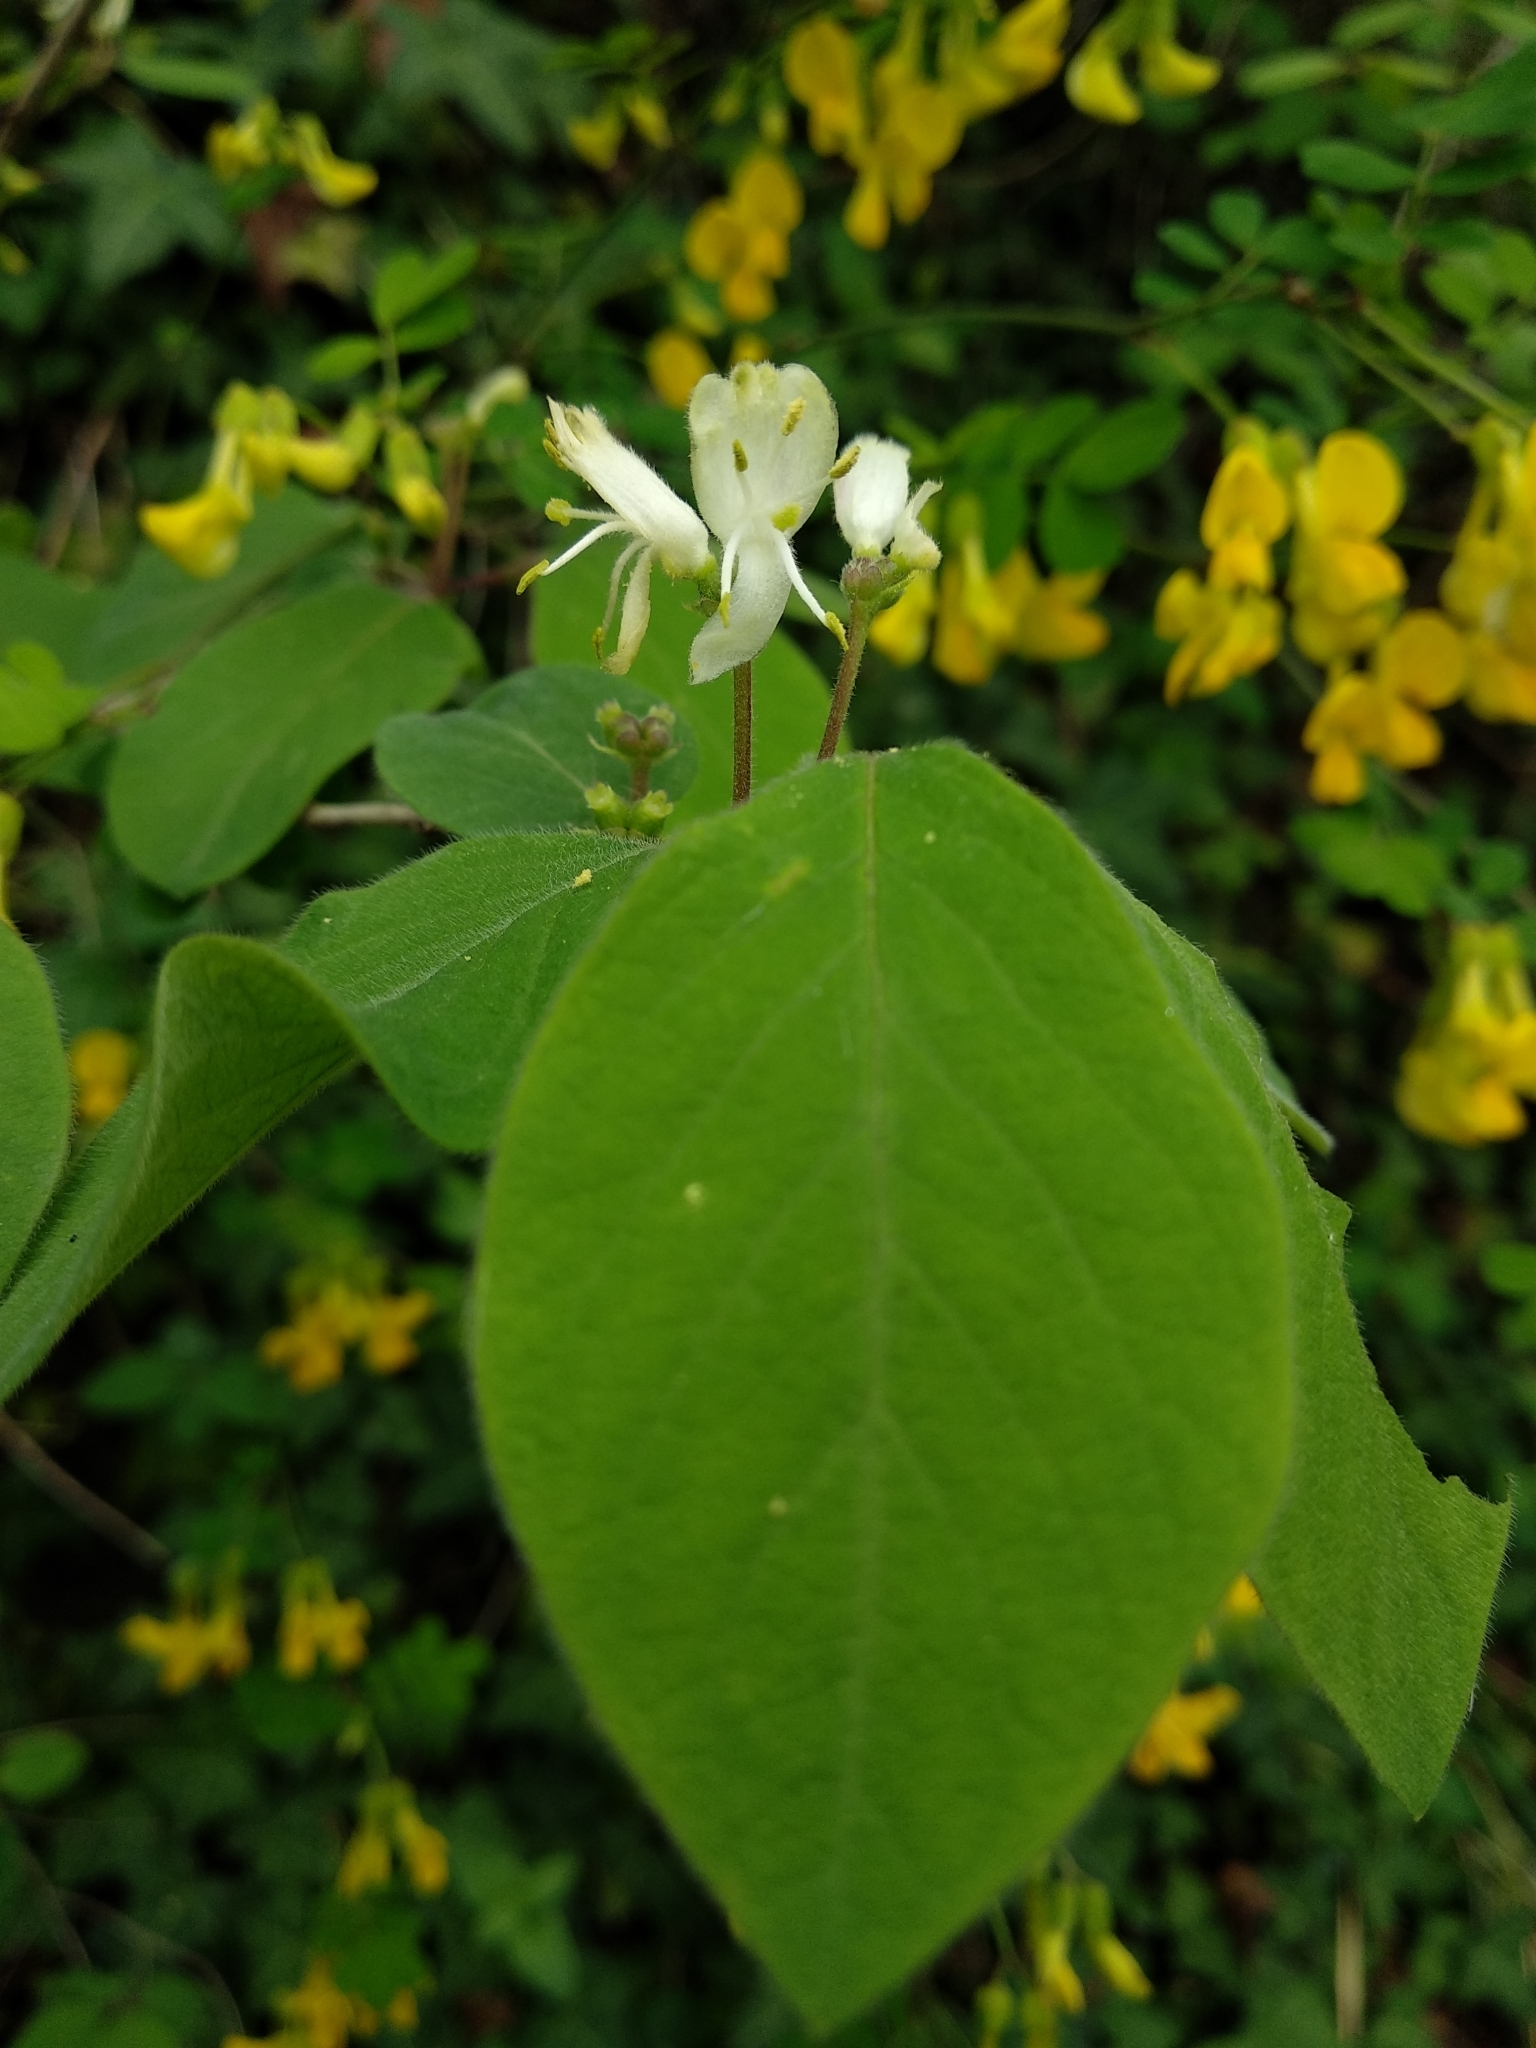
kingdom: Plantae
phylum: Tracheophyta
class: Magnoliopsida
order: Dipsacales
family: Caprifoliaceae
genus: Lonicera
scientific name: Lonicera xylosteum
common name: Fly honeysuckle
